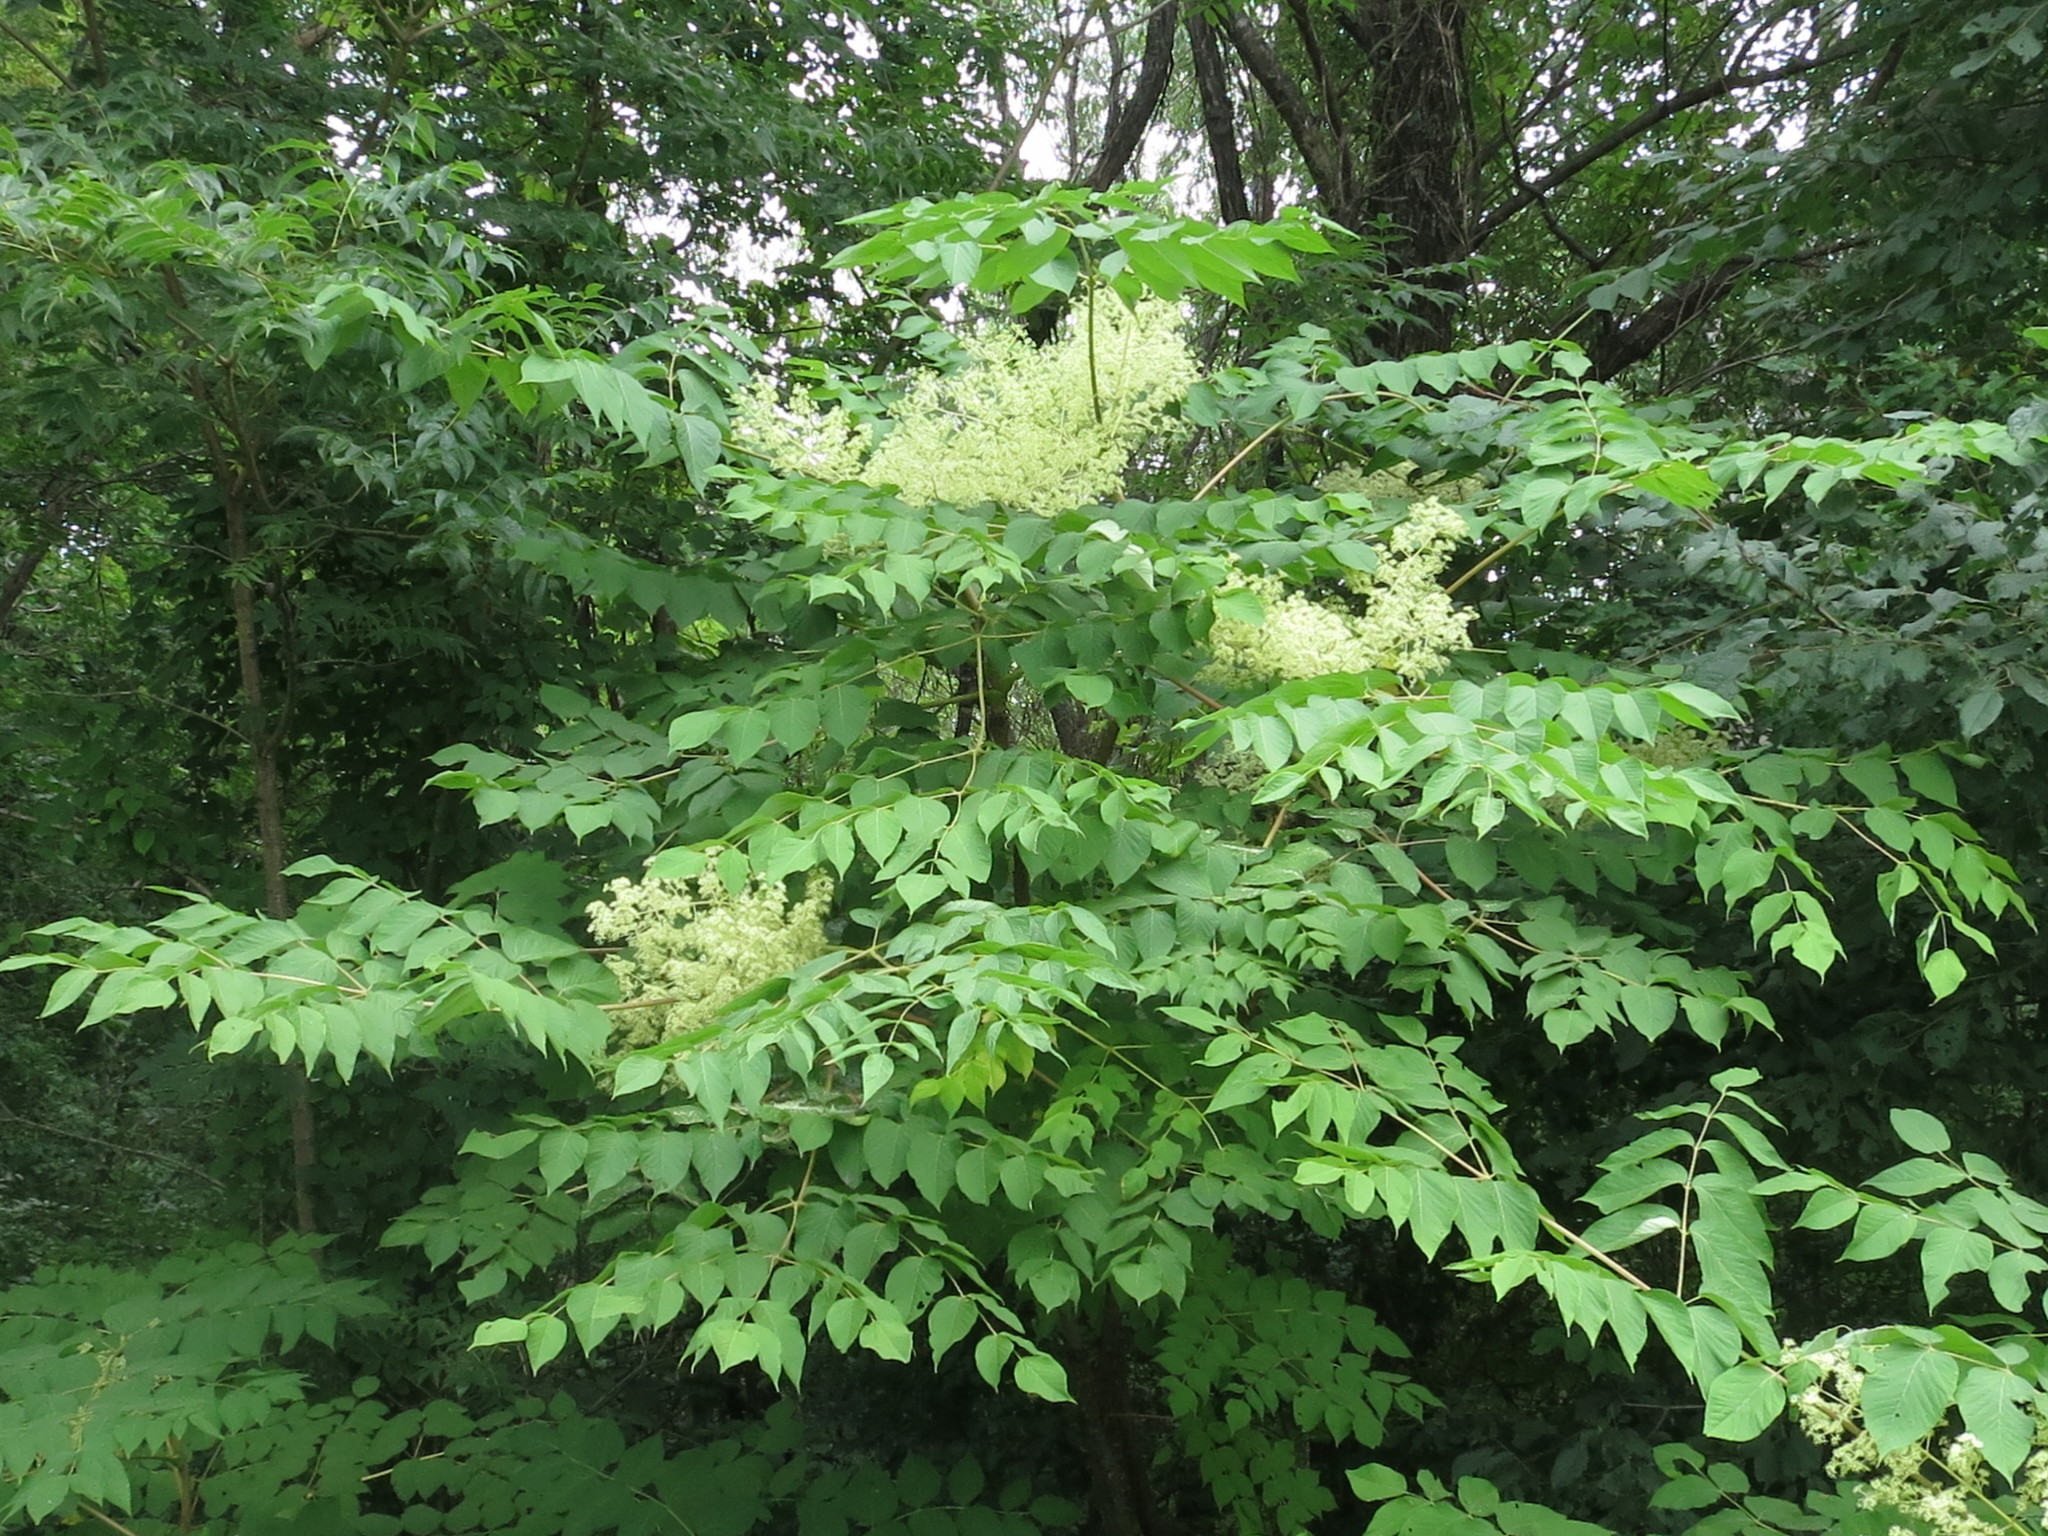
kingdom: Plantae
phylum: Tracheophyta
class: Magnoliopsida
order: Apiales
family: Araliaceae
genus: Aralia
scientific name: Aralia elata
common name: Japanese angelica-tree
